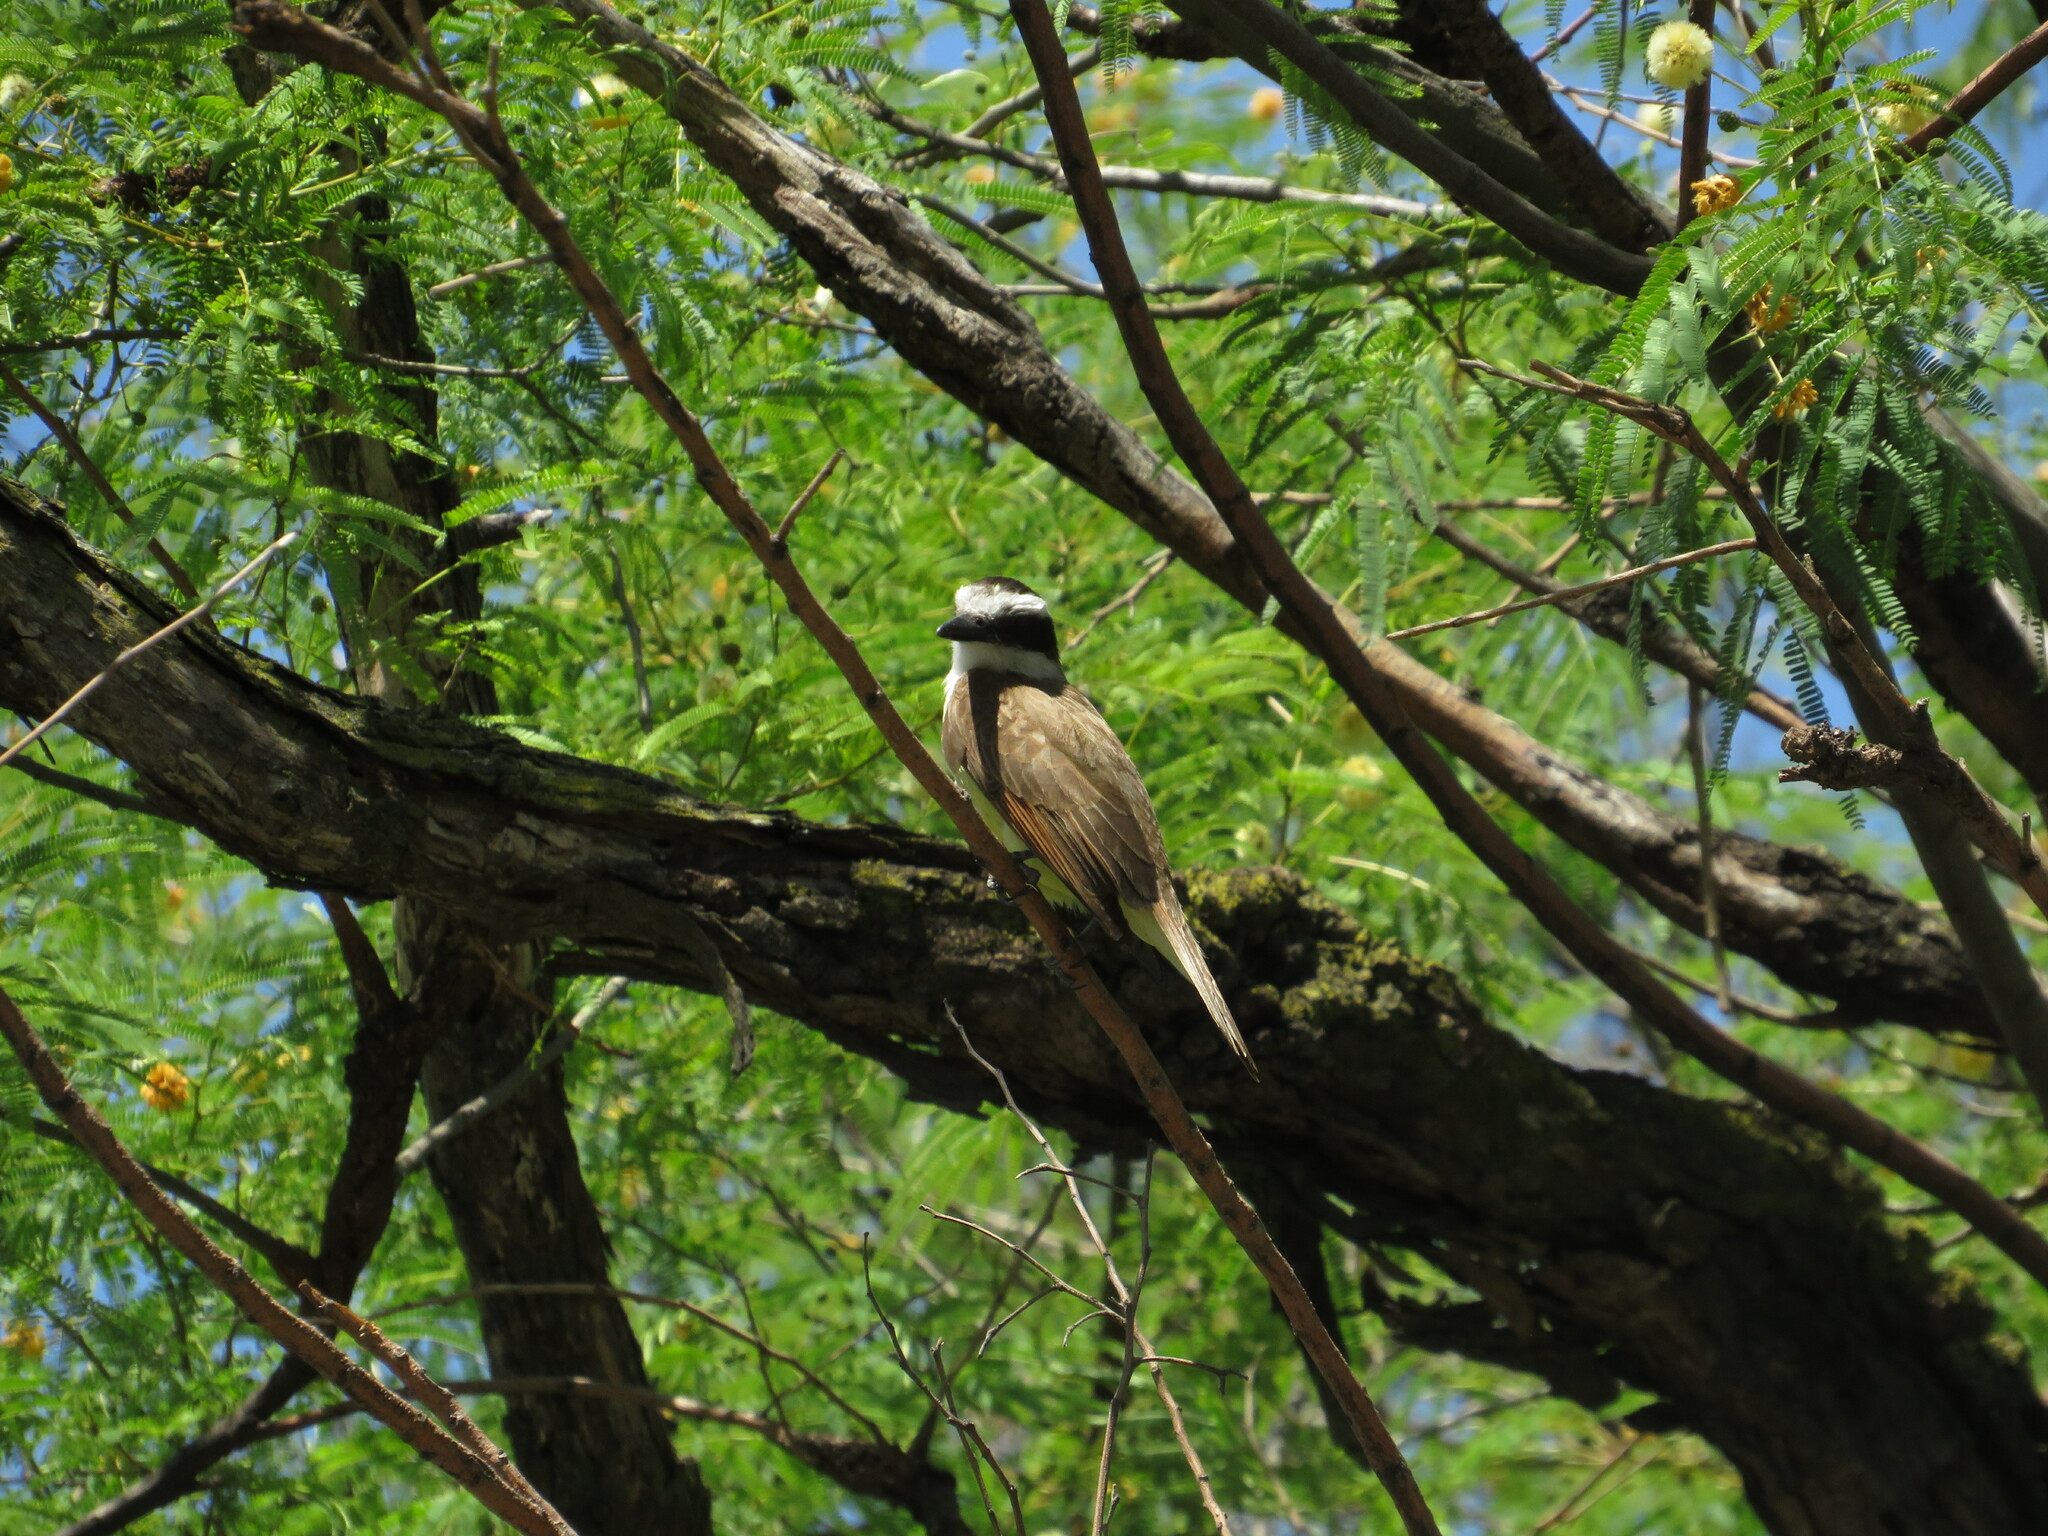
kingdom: Animalia
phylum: Chordata
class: Aves
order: Passeriformes
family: Tyrannidae
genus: Pitangus
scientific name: Pitangus sulphuratus
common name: Great kiskadee
